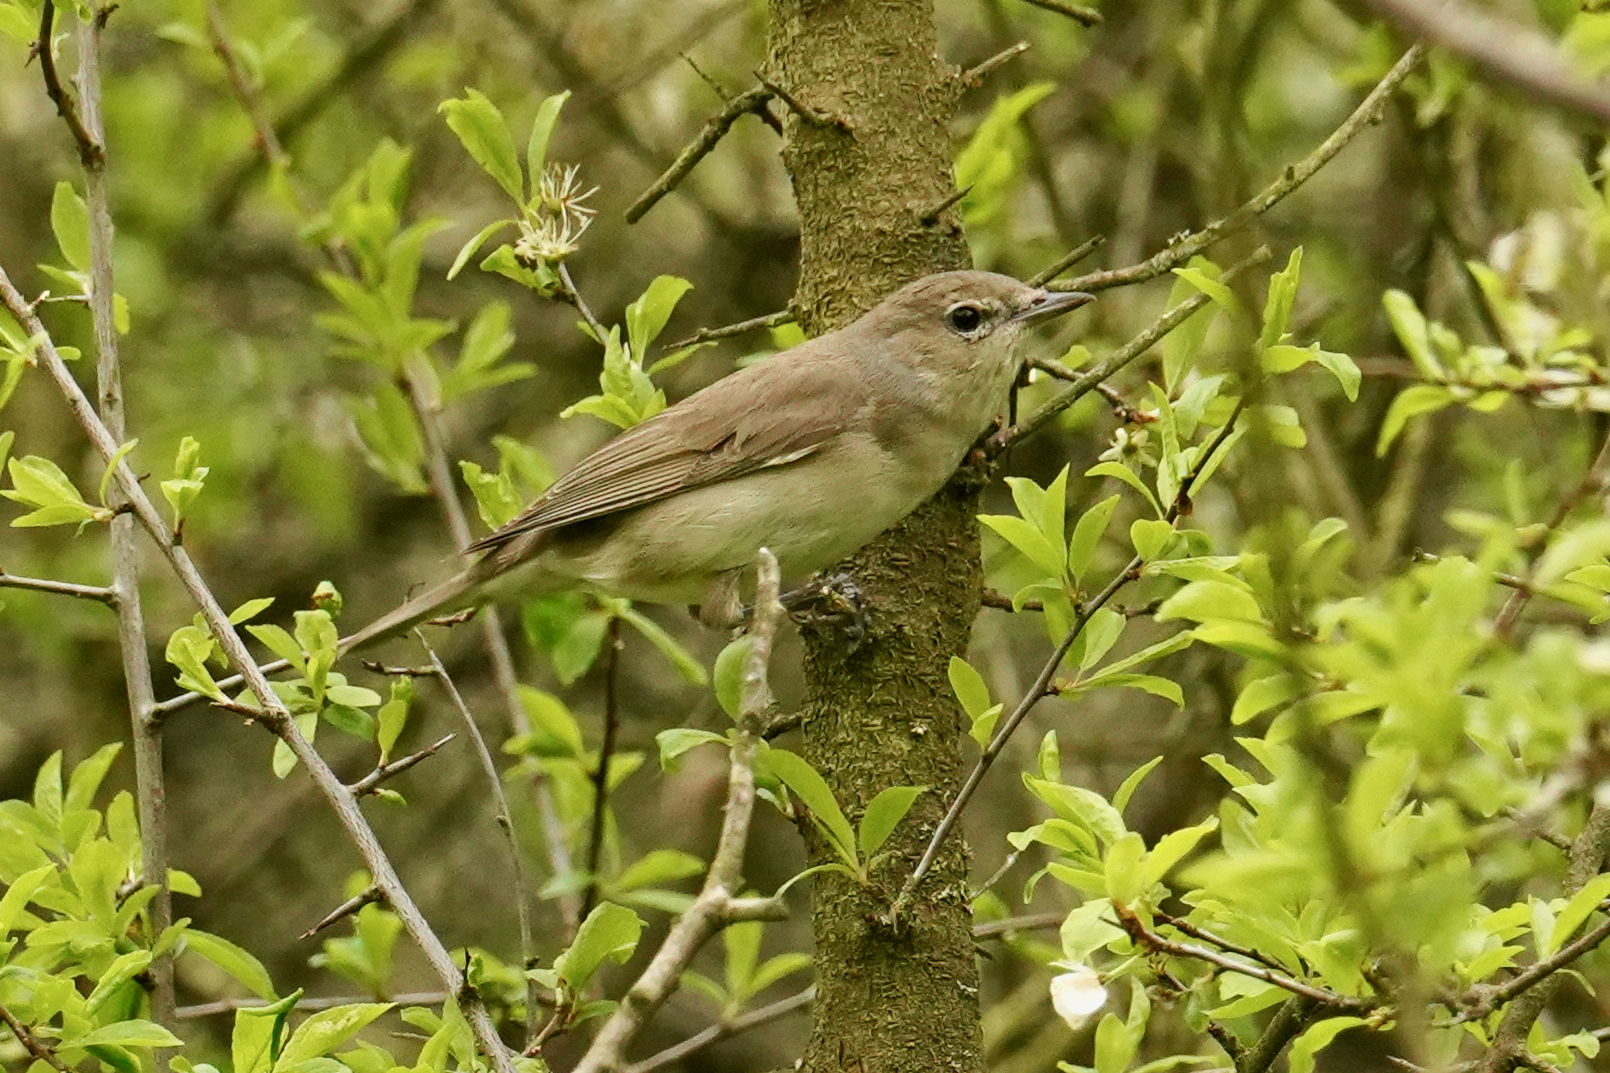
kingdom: Animalia
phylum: Chordata
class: Aves
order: Passeriformes
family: Sylviidae
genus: Sylvia
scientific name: Sylvia borin
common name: Garden warbler
